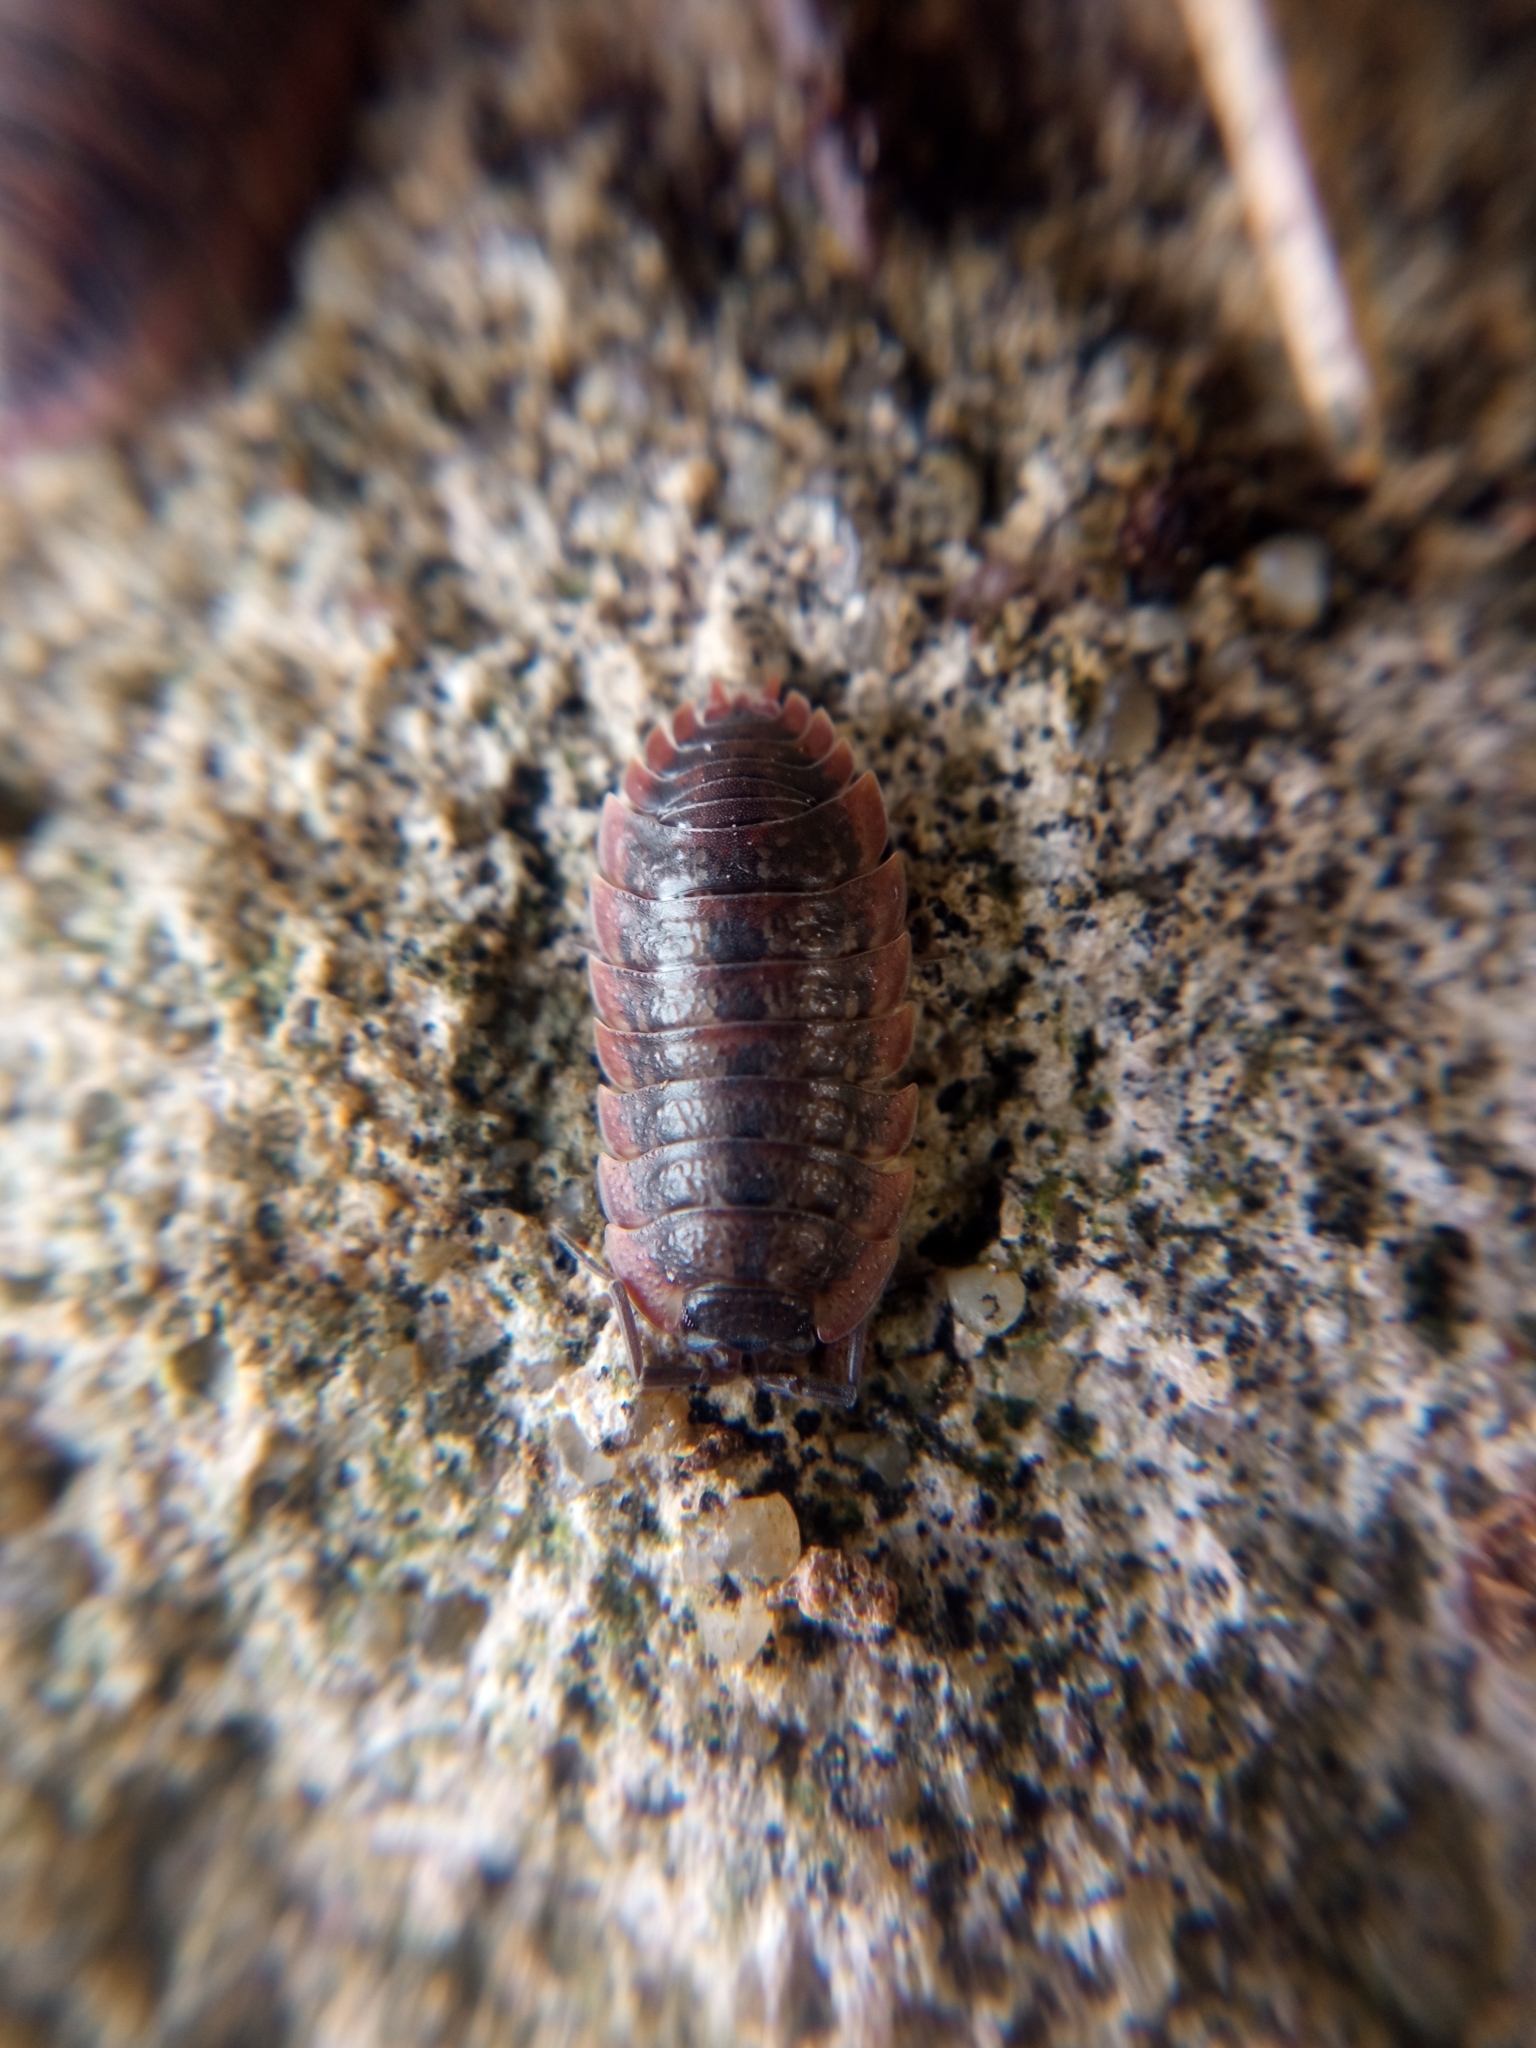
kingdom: Animalia
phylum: Arthropoda
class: Malacostraca
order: Isopoda
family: Porcellionidae
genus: Porcellio
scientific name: Porcellio montanus
